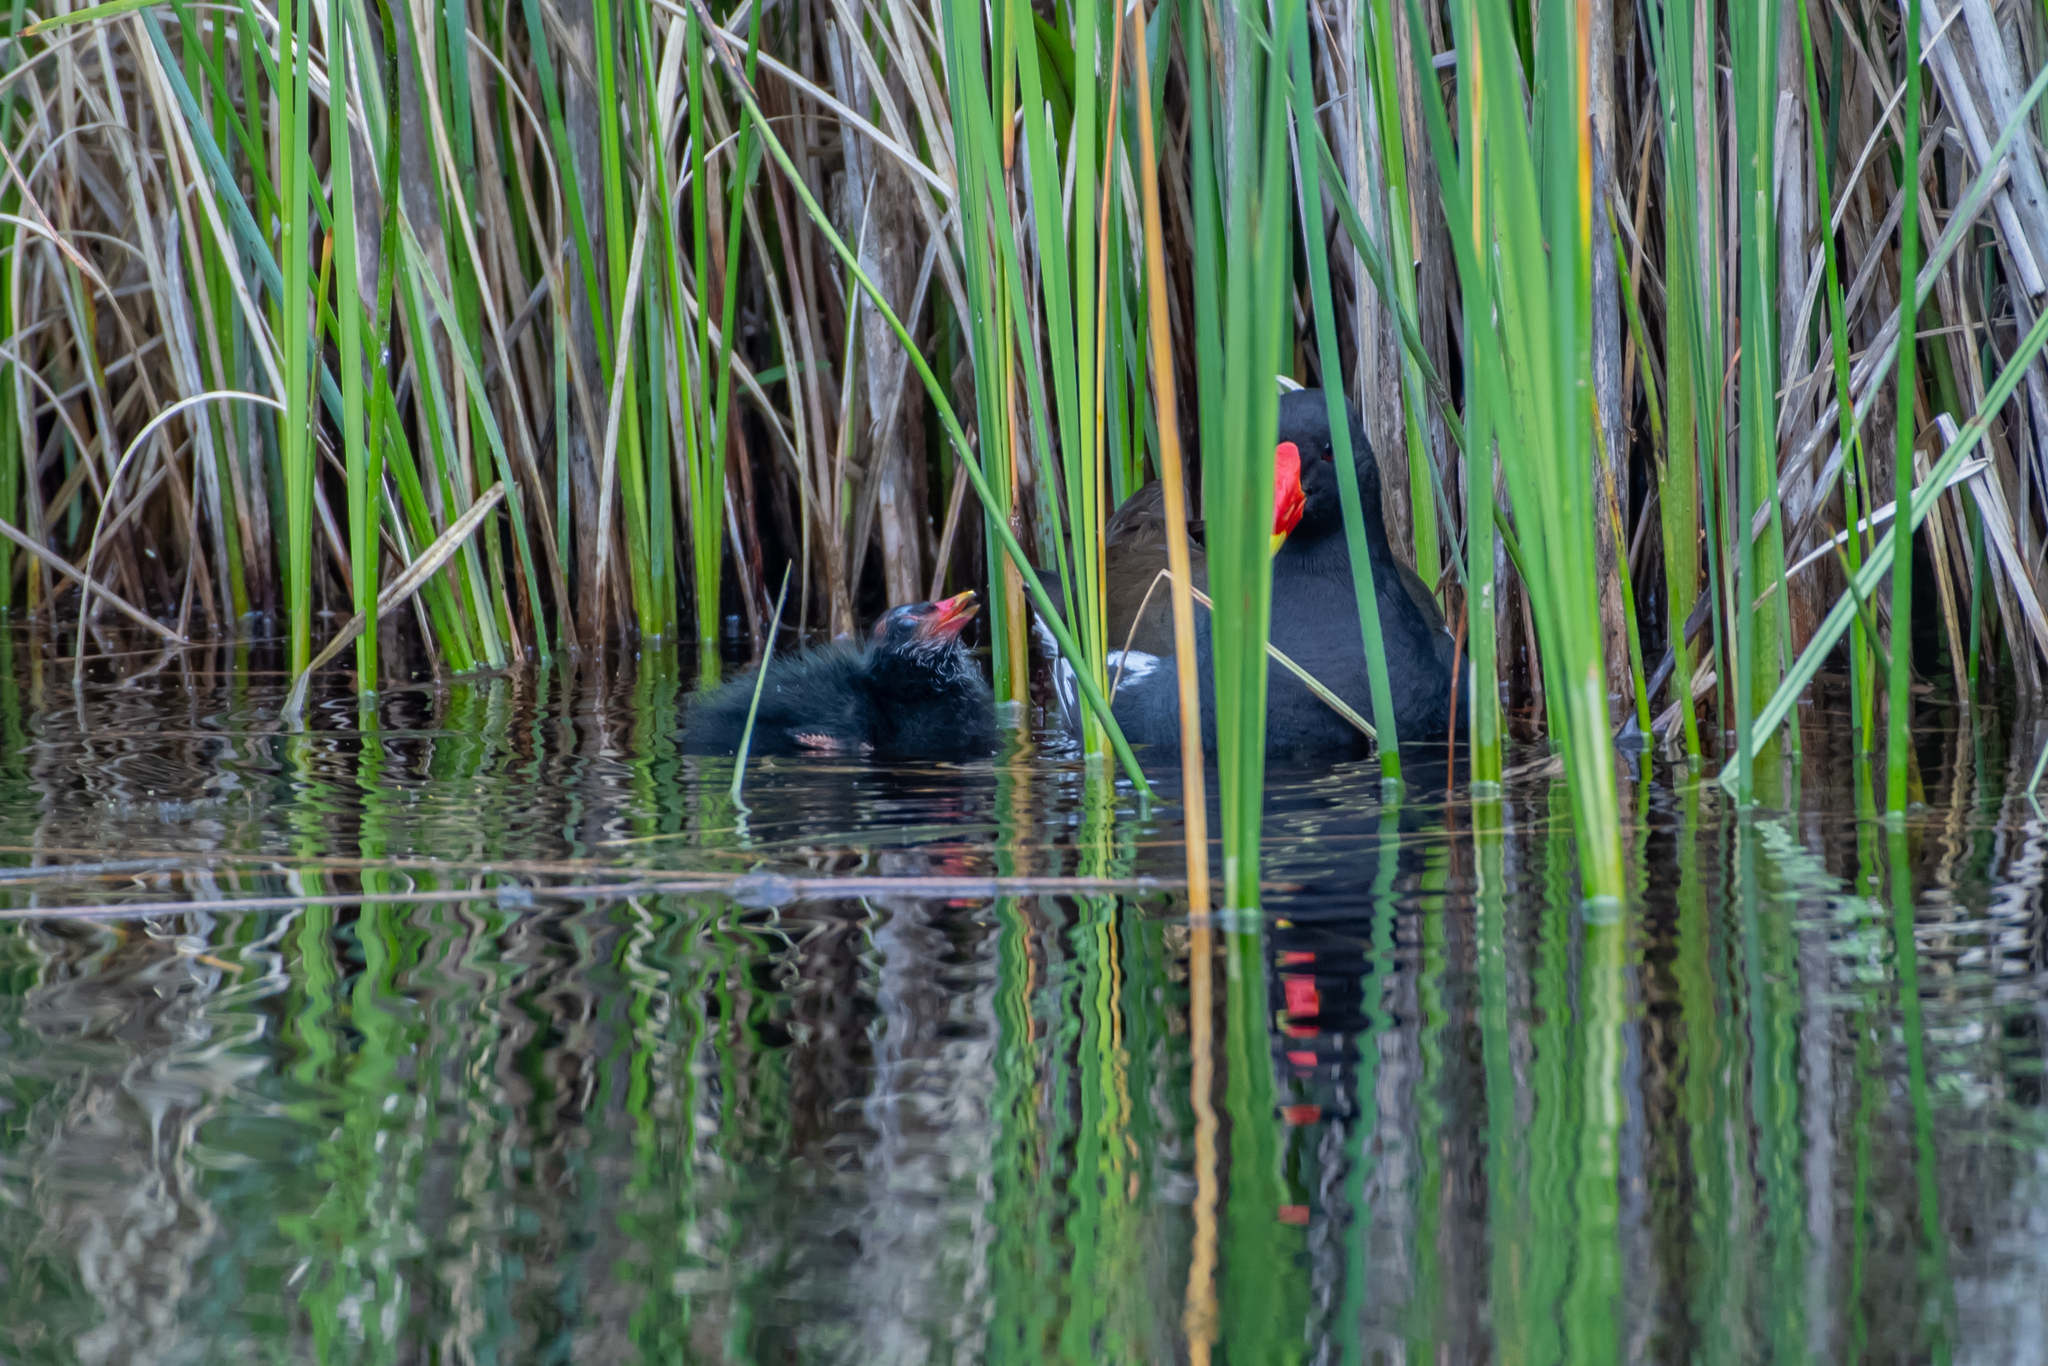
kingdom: Animalia
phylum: Chordata
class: Aves
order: Gruiformes
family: Rallidae
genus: Gallinula
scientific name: Gallinula chloropus
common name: Common moorhen
